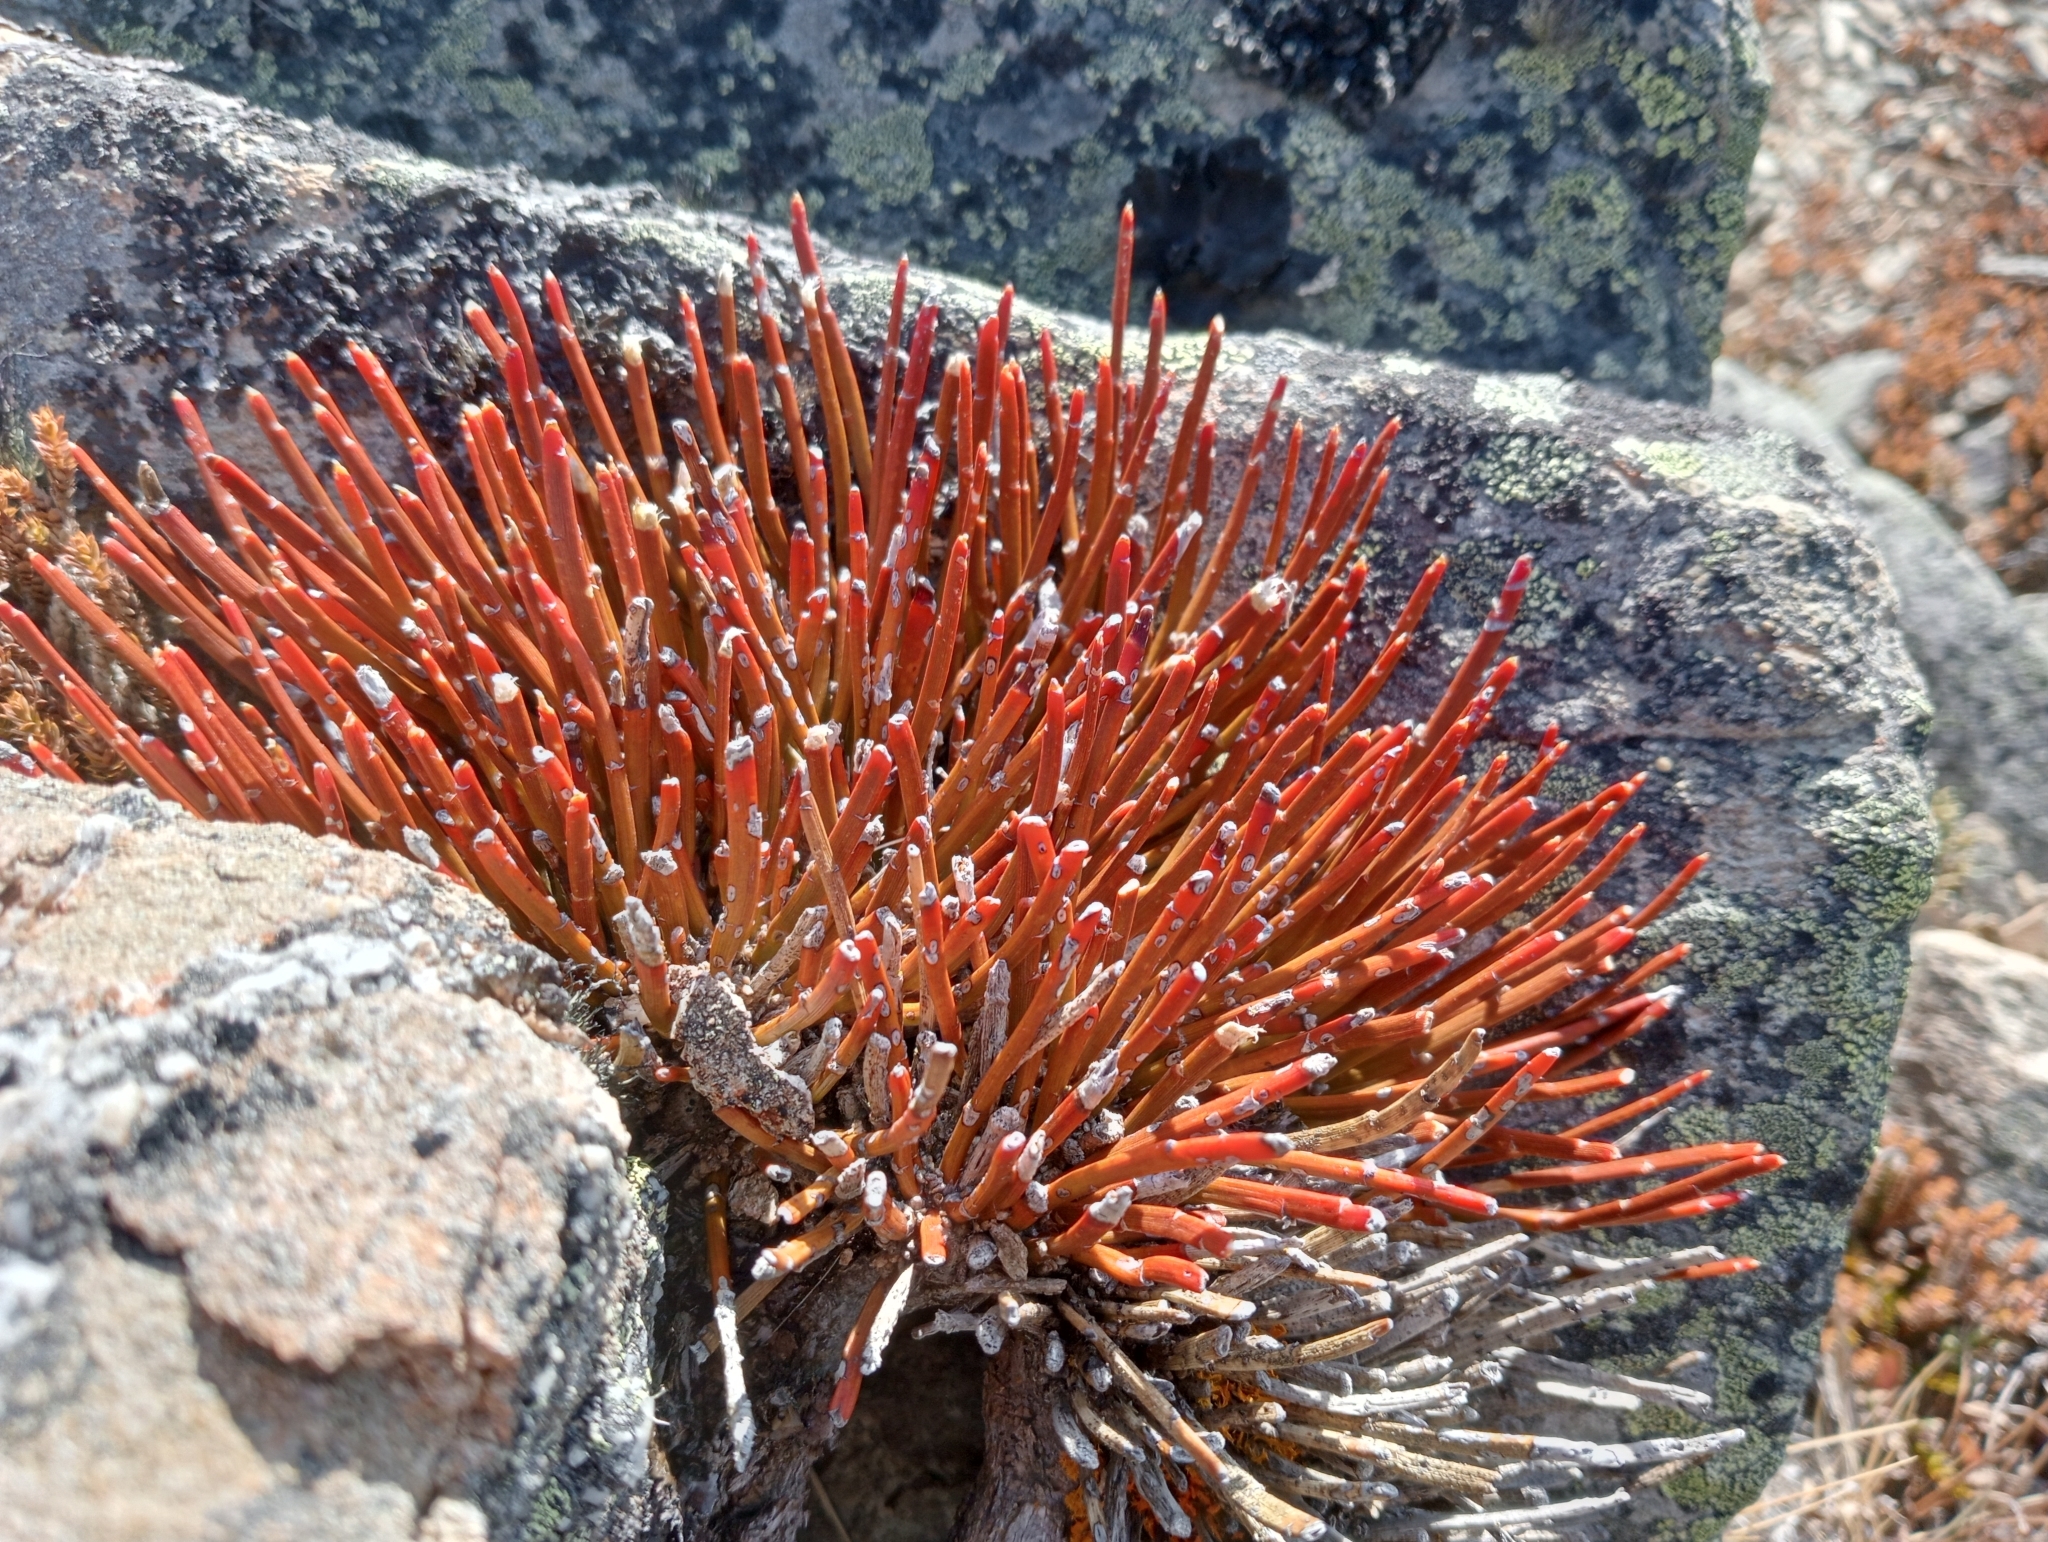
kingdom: Plantae
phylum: Tracheophyta
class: Magnoliopsida
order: Fabales
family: Fabaceae
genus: Carmichaelia
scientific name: Carmichaelia vexillata
